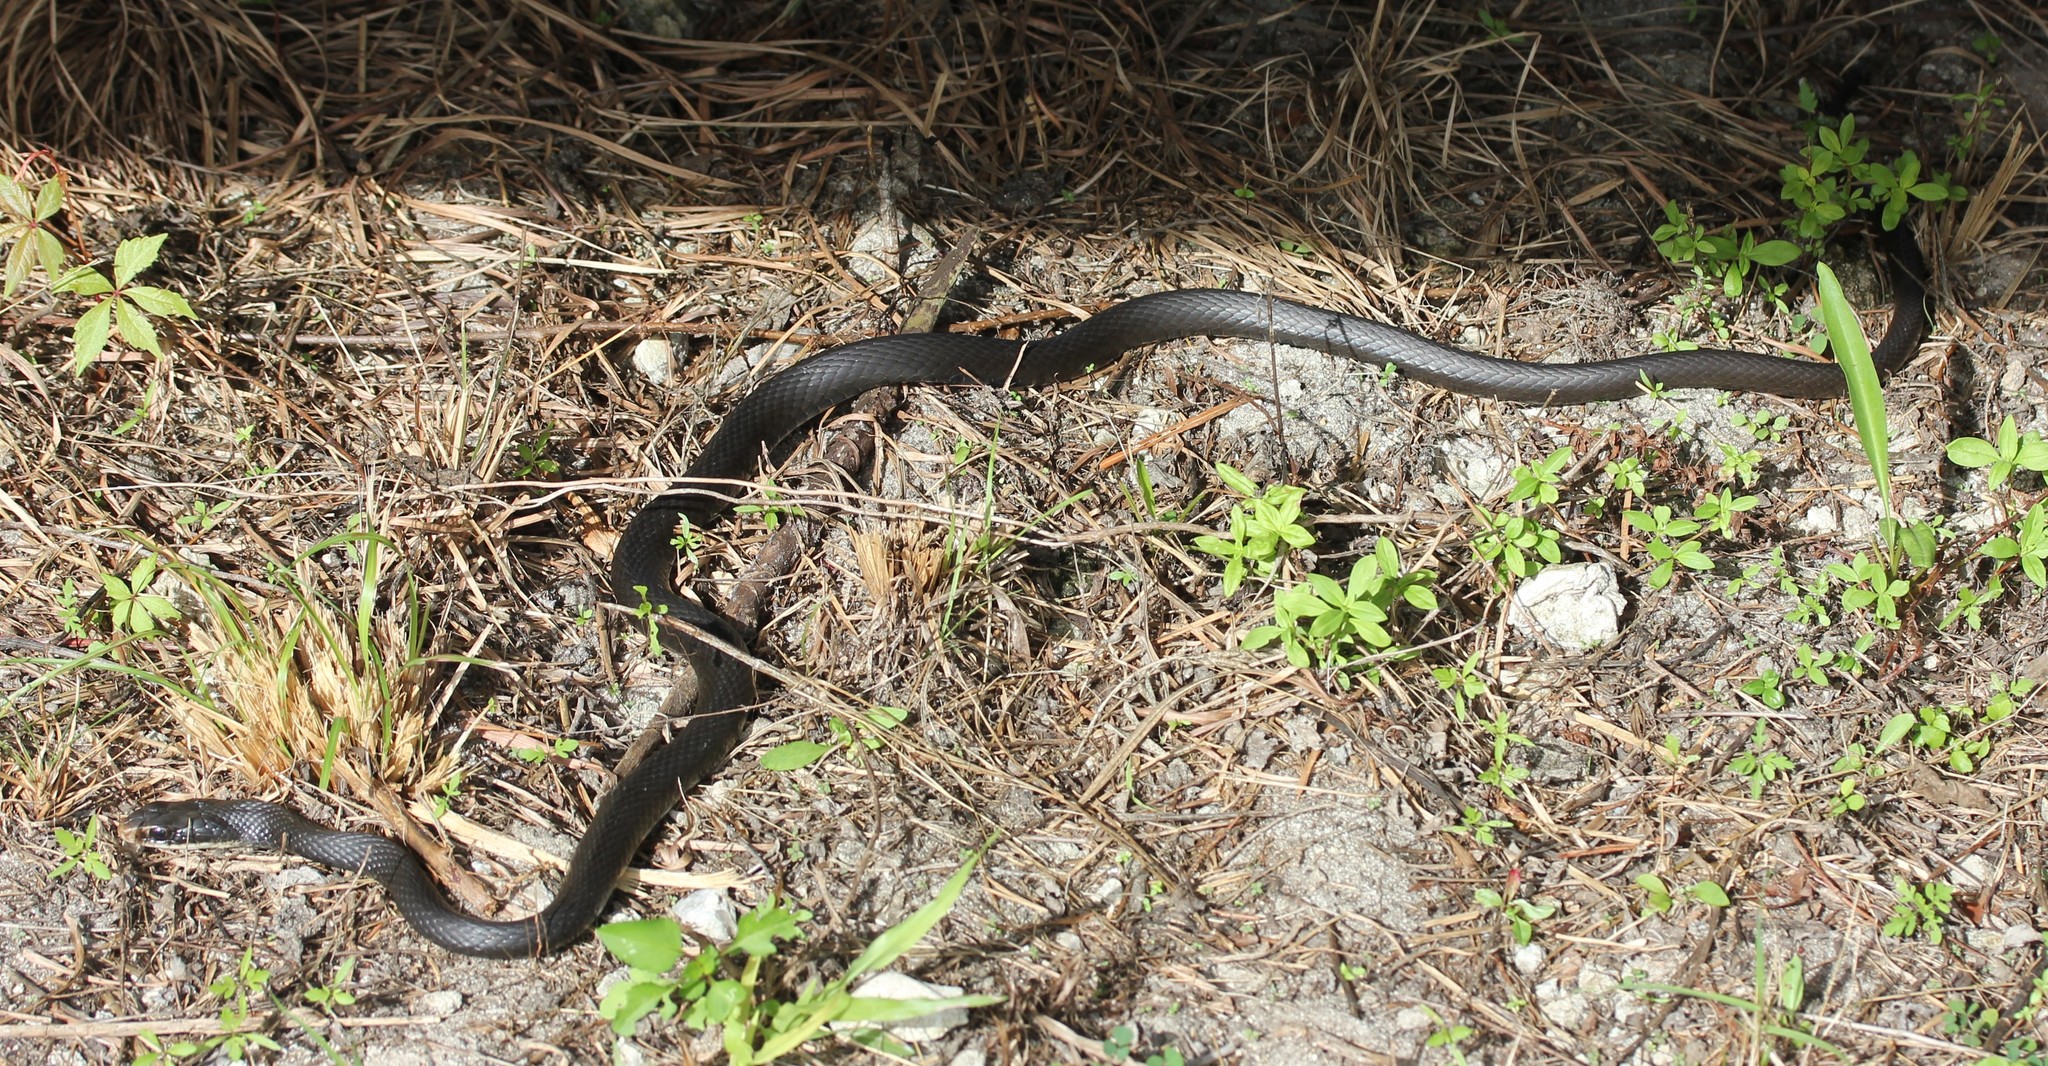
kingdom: Animalia
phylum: Chordata
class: Squamata
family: Colubridae
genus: Coluber
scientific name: Coluber constrictor
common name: Eastern racer
